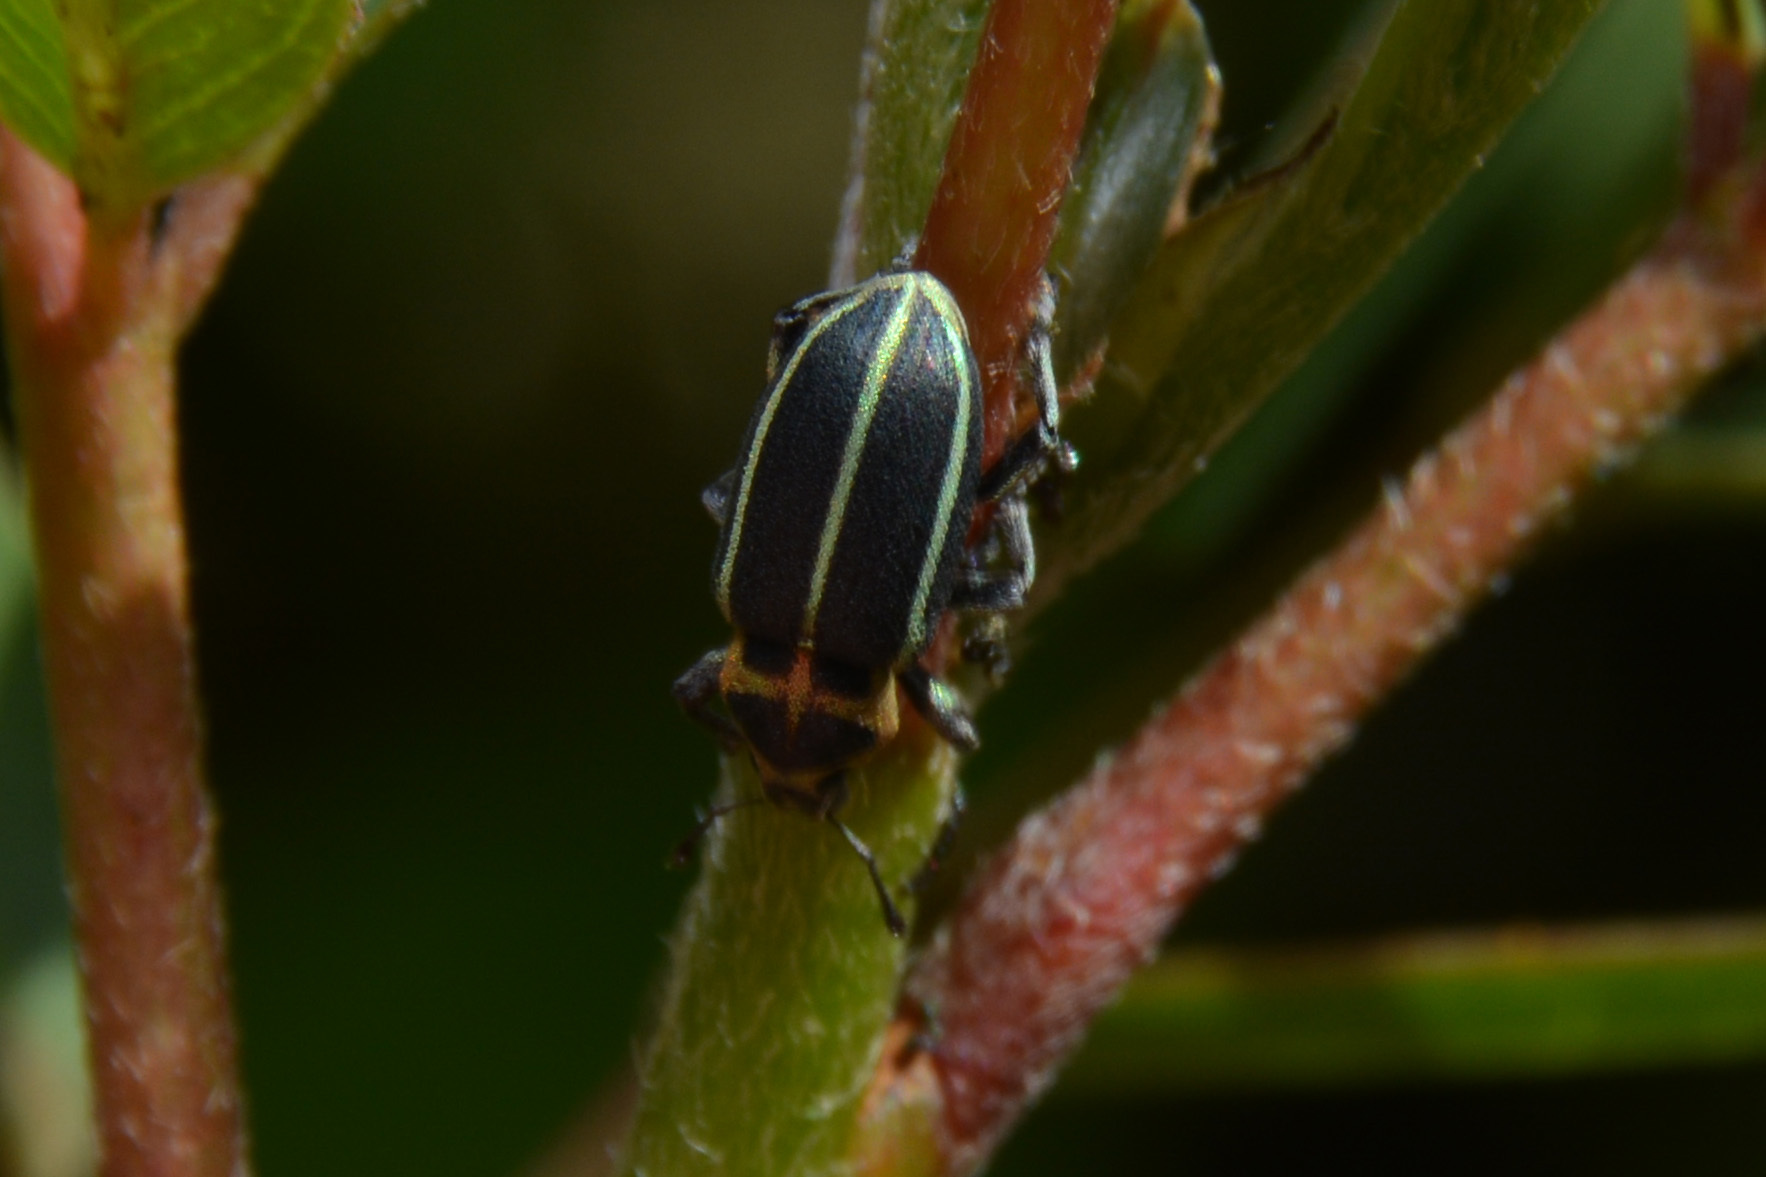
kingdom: Animalia
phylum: Arthropoda
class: Insecta
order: Coleoptera
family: Curculionidae
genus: Eudiagogus
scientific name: Eudiagogus episcopalis
